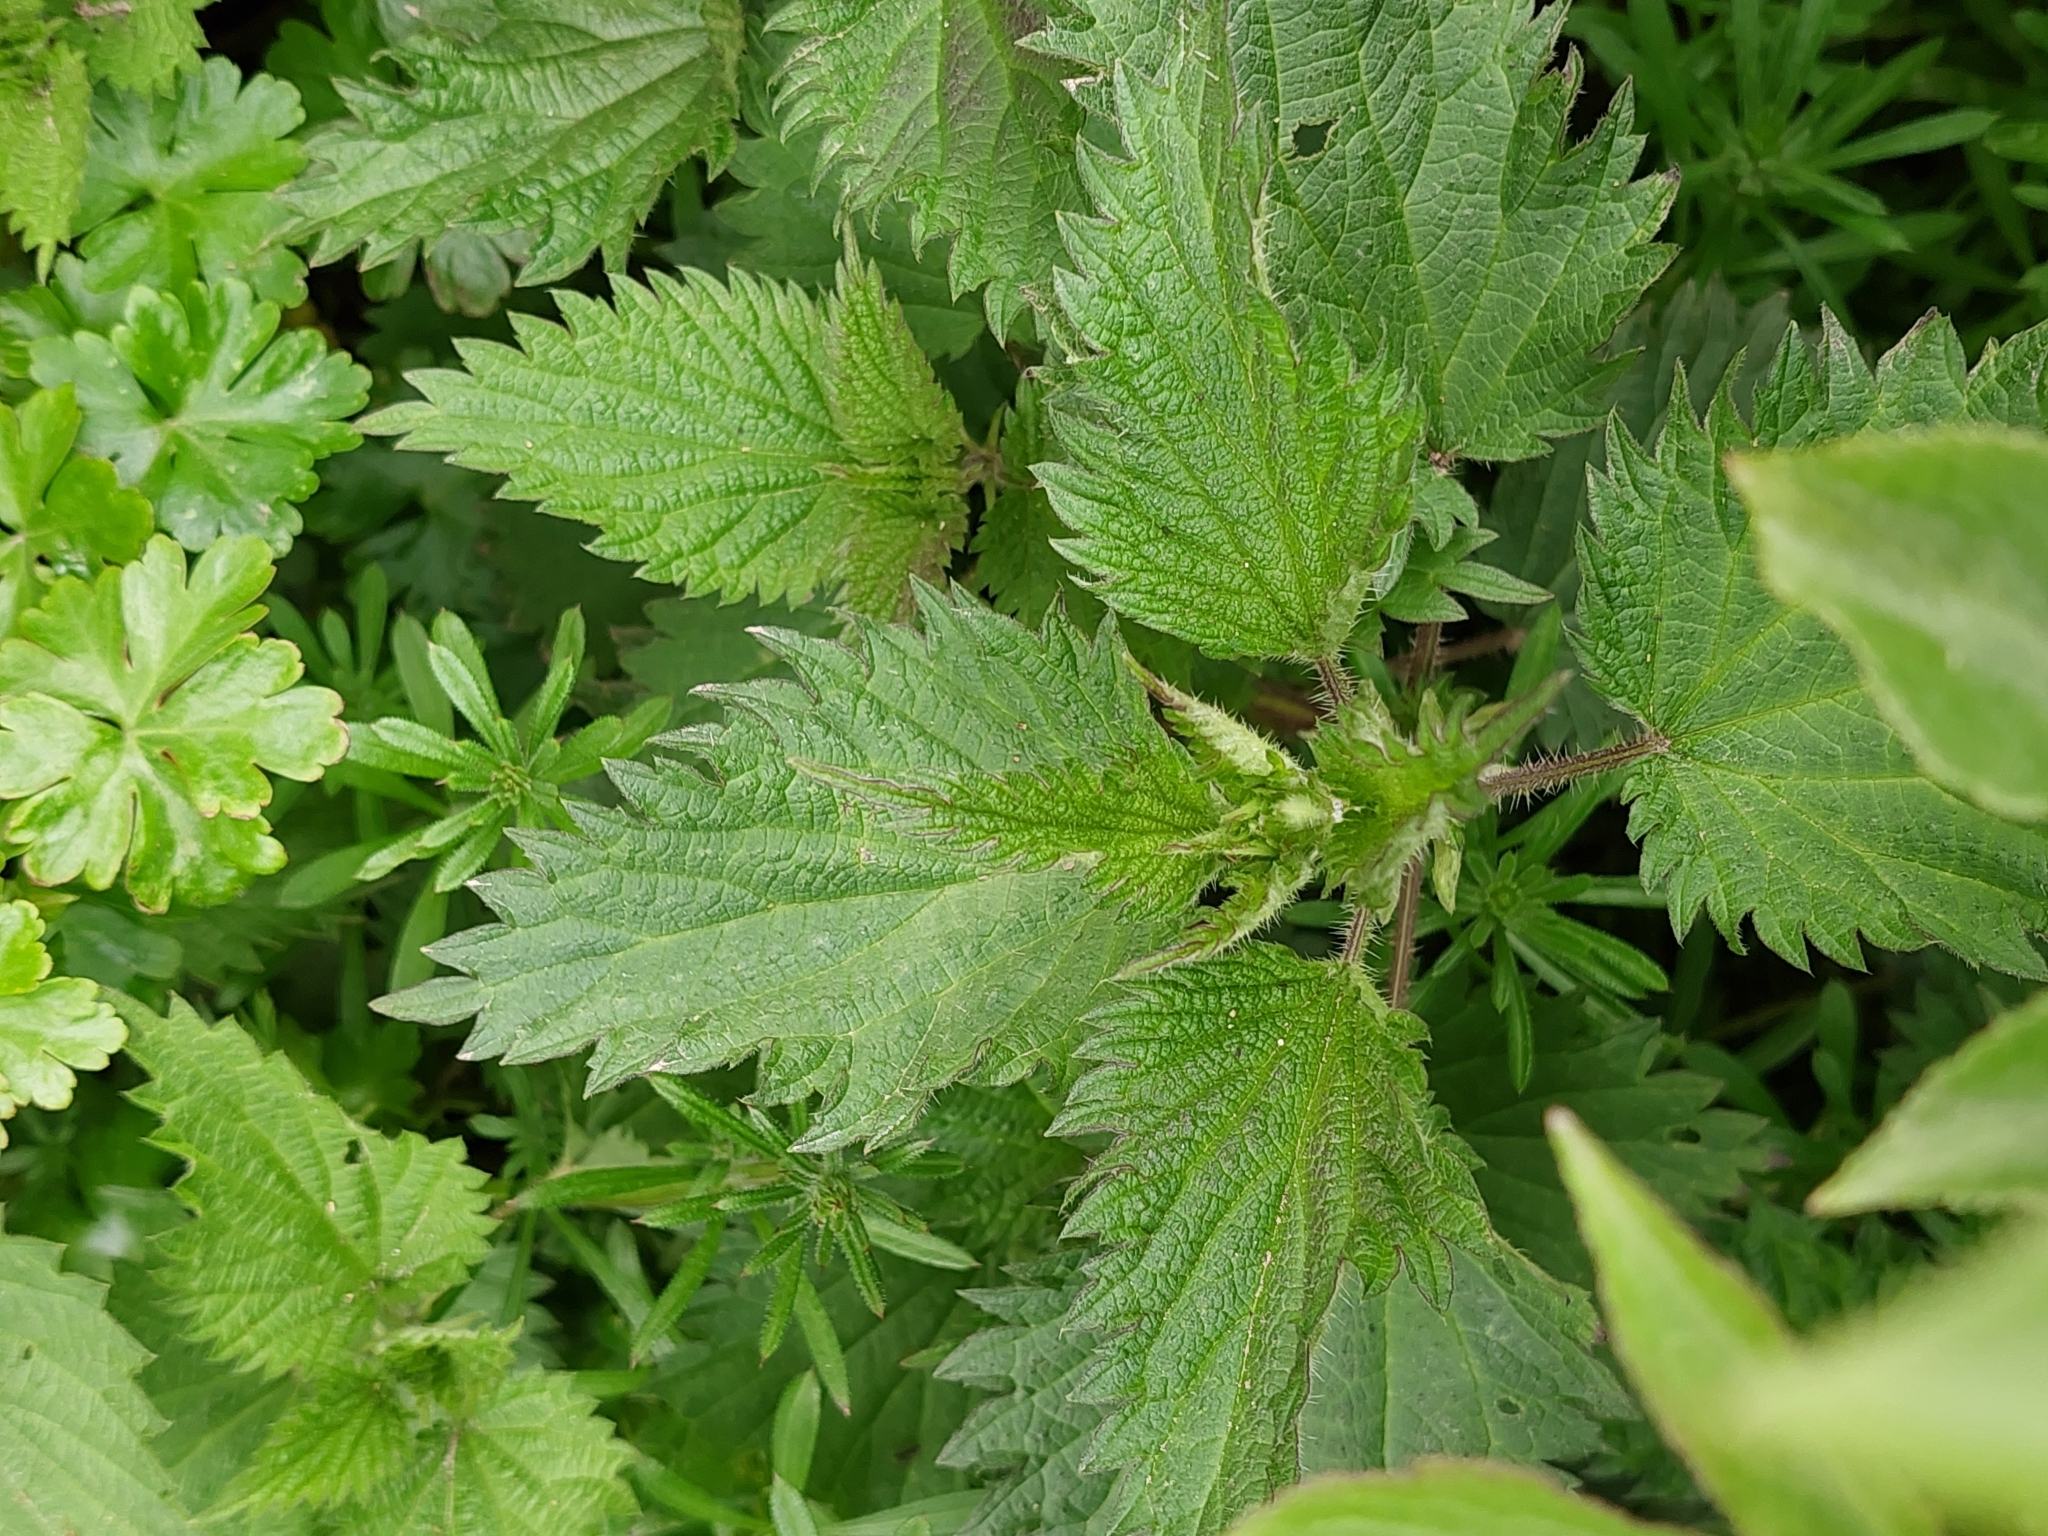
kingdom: Plantae
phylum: Tracheophyta
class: Magnoliopsida
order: Rosales
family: Urticaceae
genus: Urtica
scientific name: Urtica dioica
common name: Common nettle
